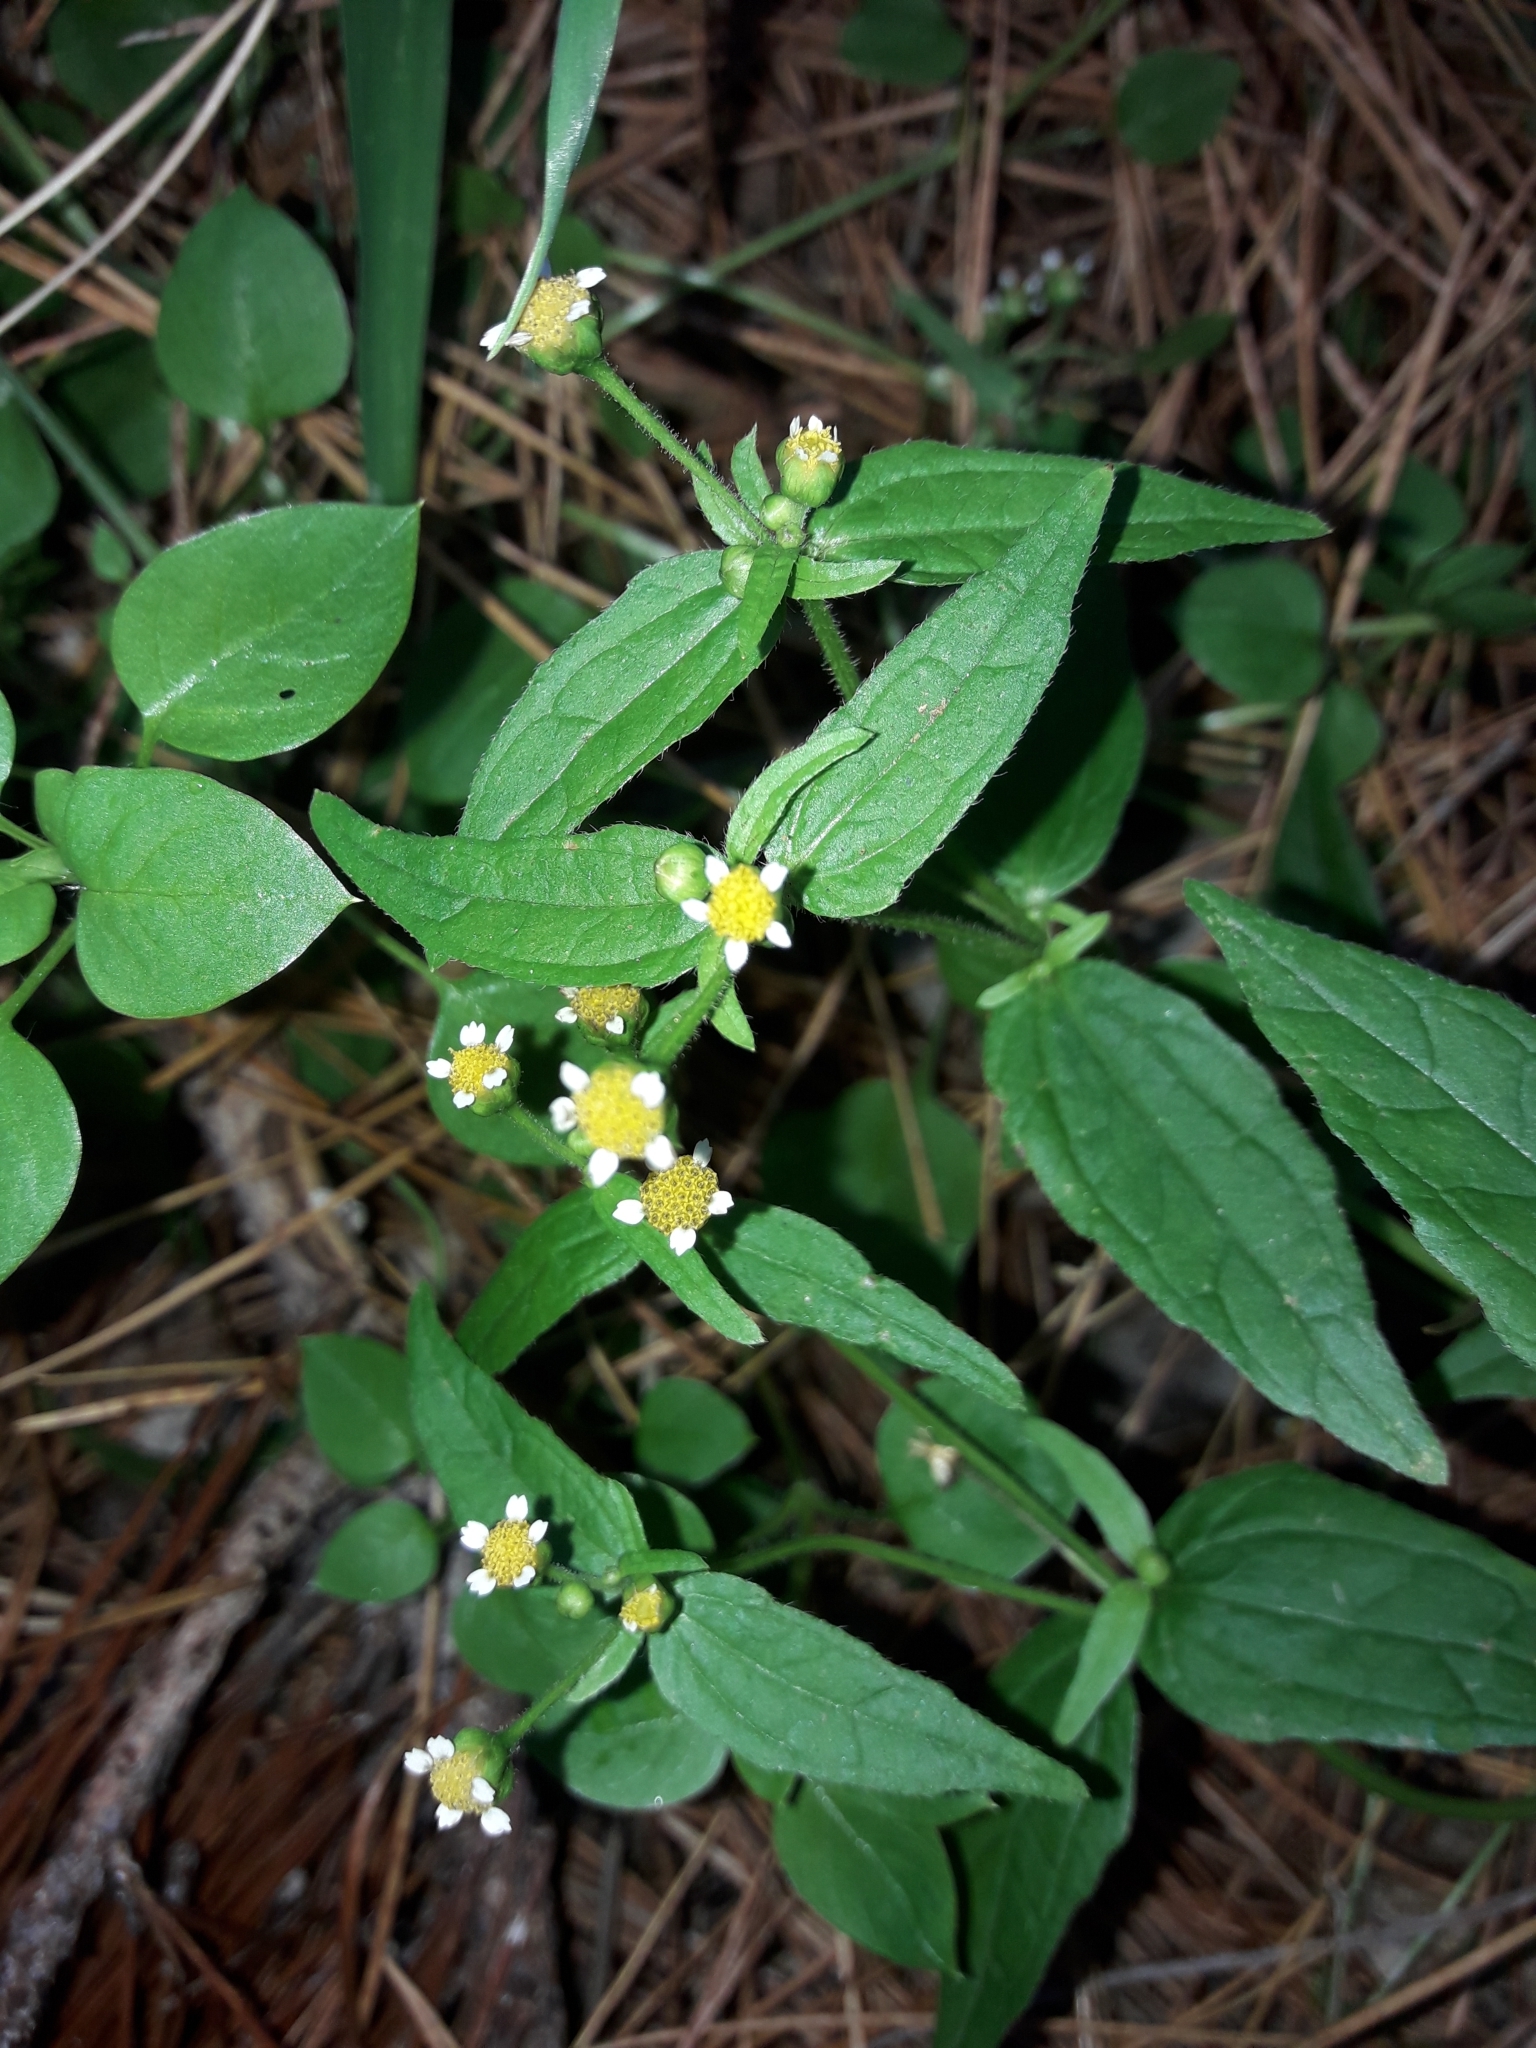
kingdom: Plantae
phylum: Tracheophyta
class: Magnoliopsida
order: Asterales
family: Asteraceae
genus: Galinsoga
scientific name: Galinsoga quadriradiata
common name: Shaggy soldier
